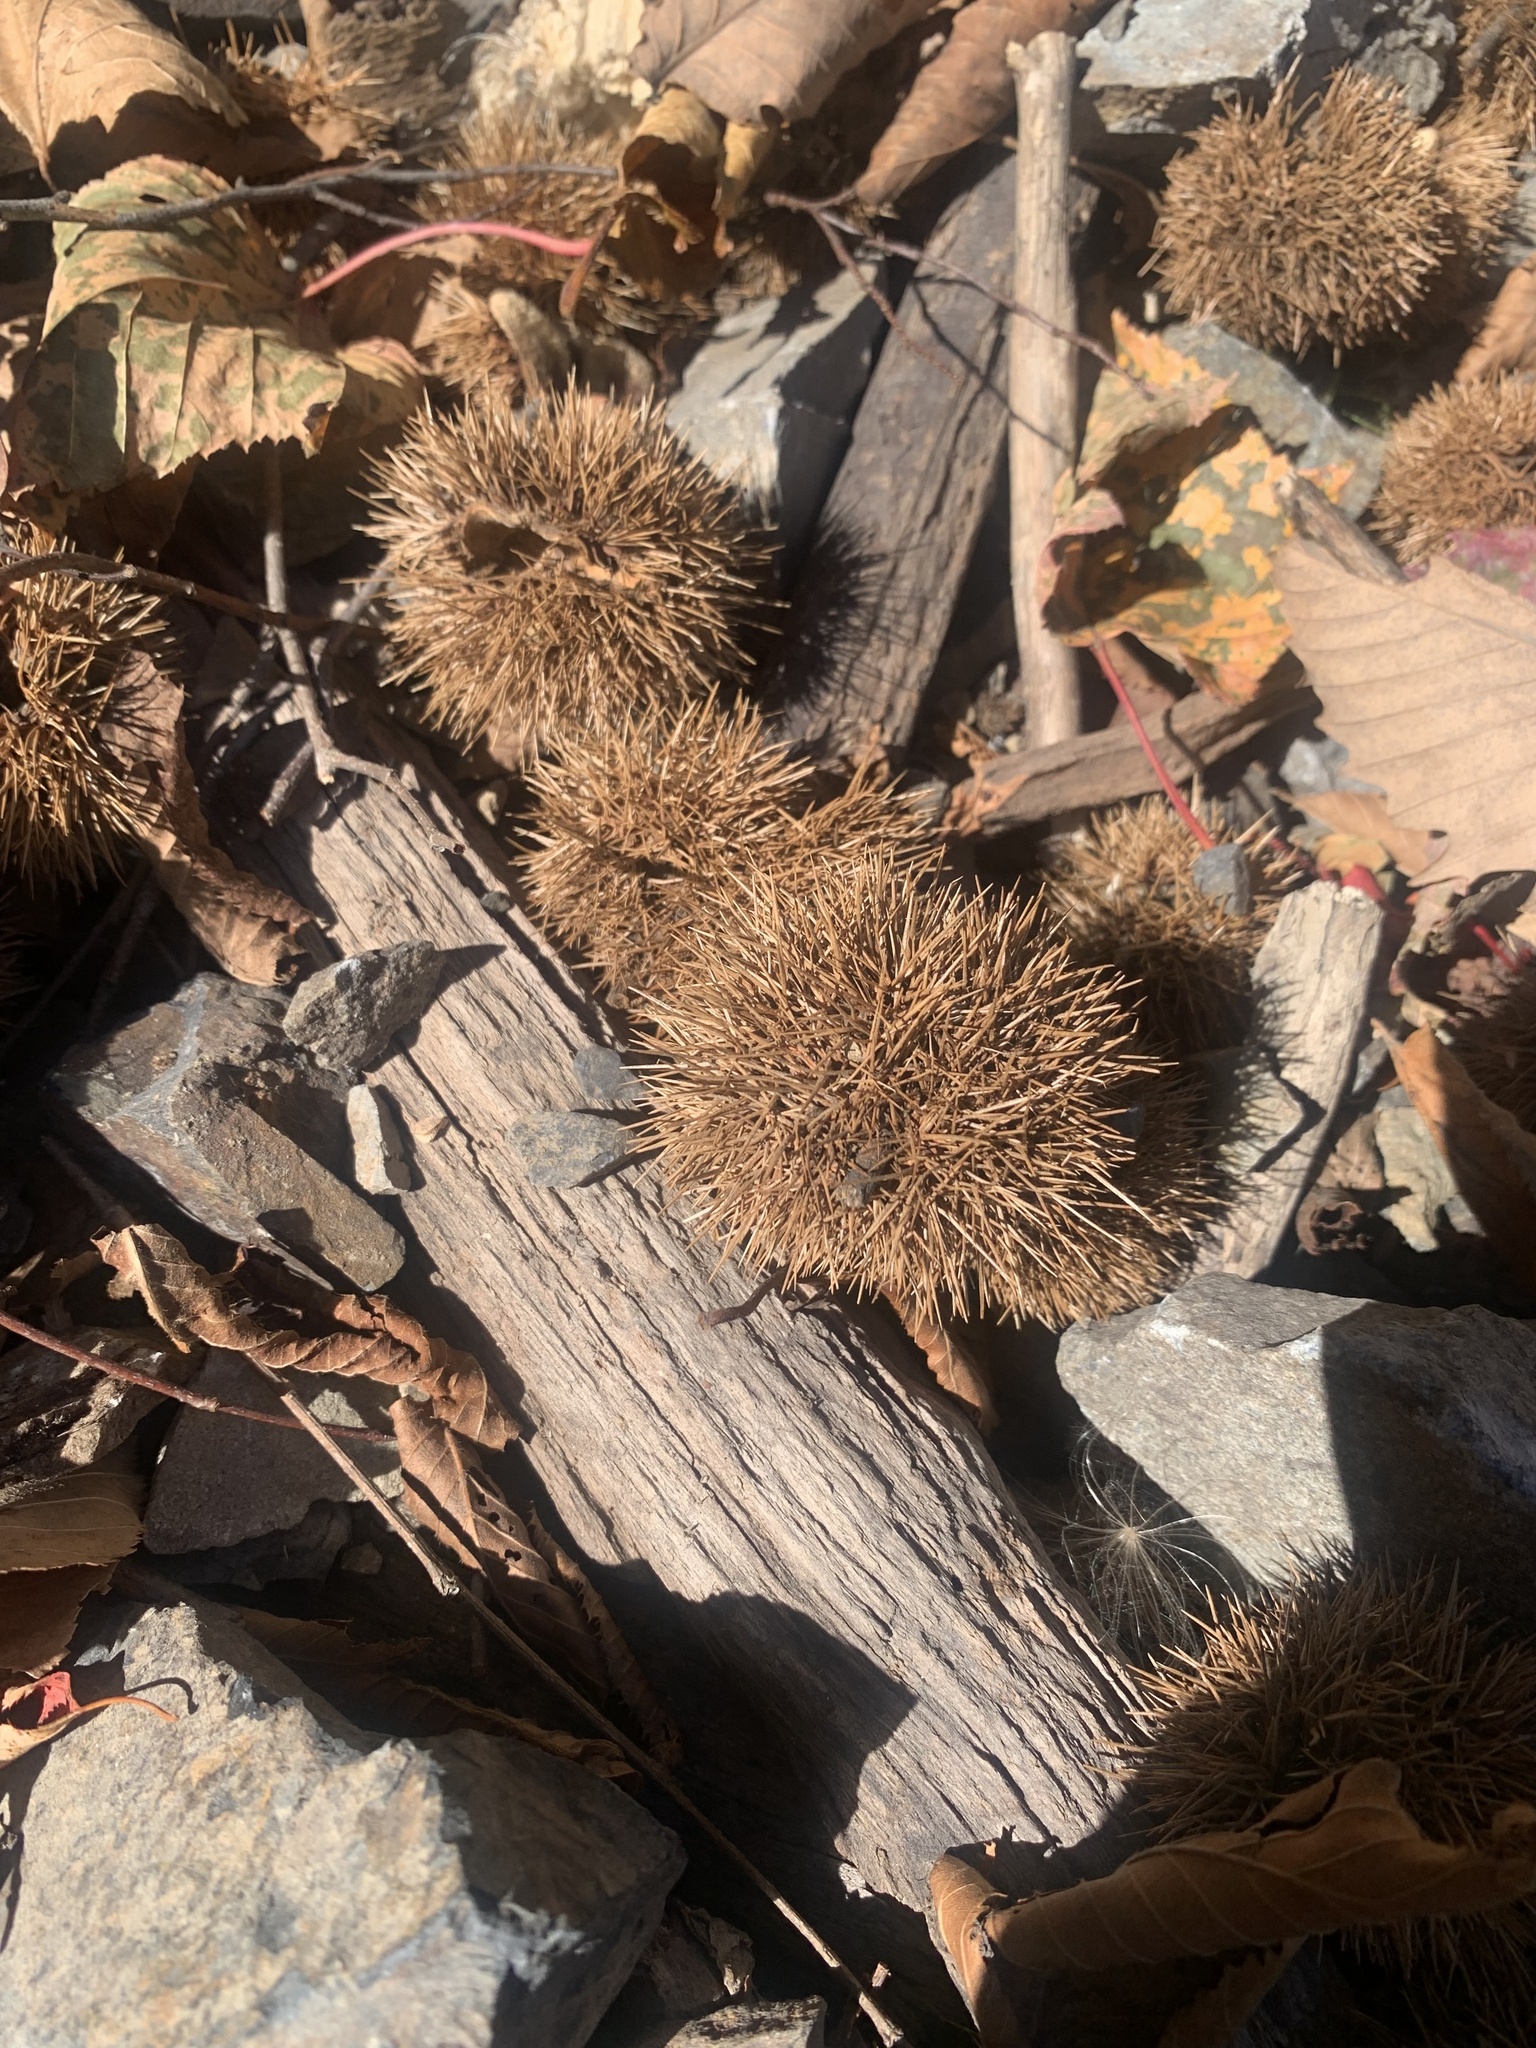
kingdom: Plantae
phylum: Tracheophyta
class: Magnoliopsida
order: Fagales
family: Fagaceae
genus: Castanea
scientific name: Castanea crenata
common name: Japanese chestnut
